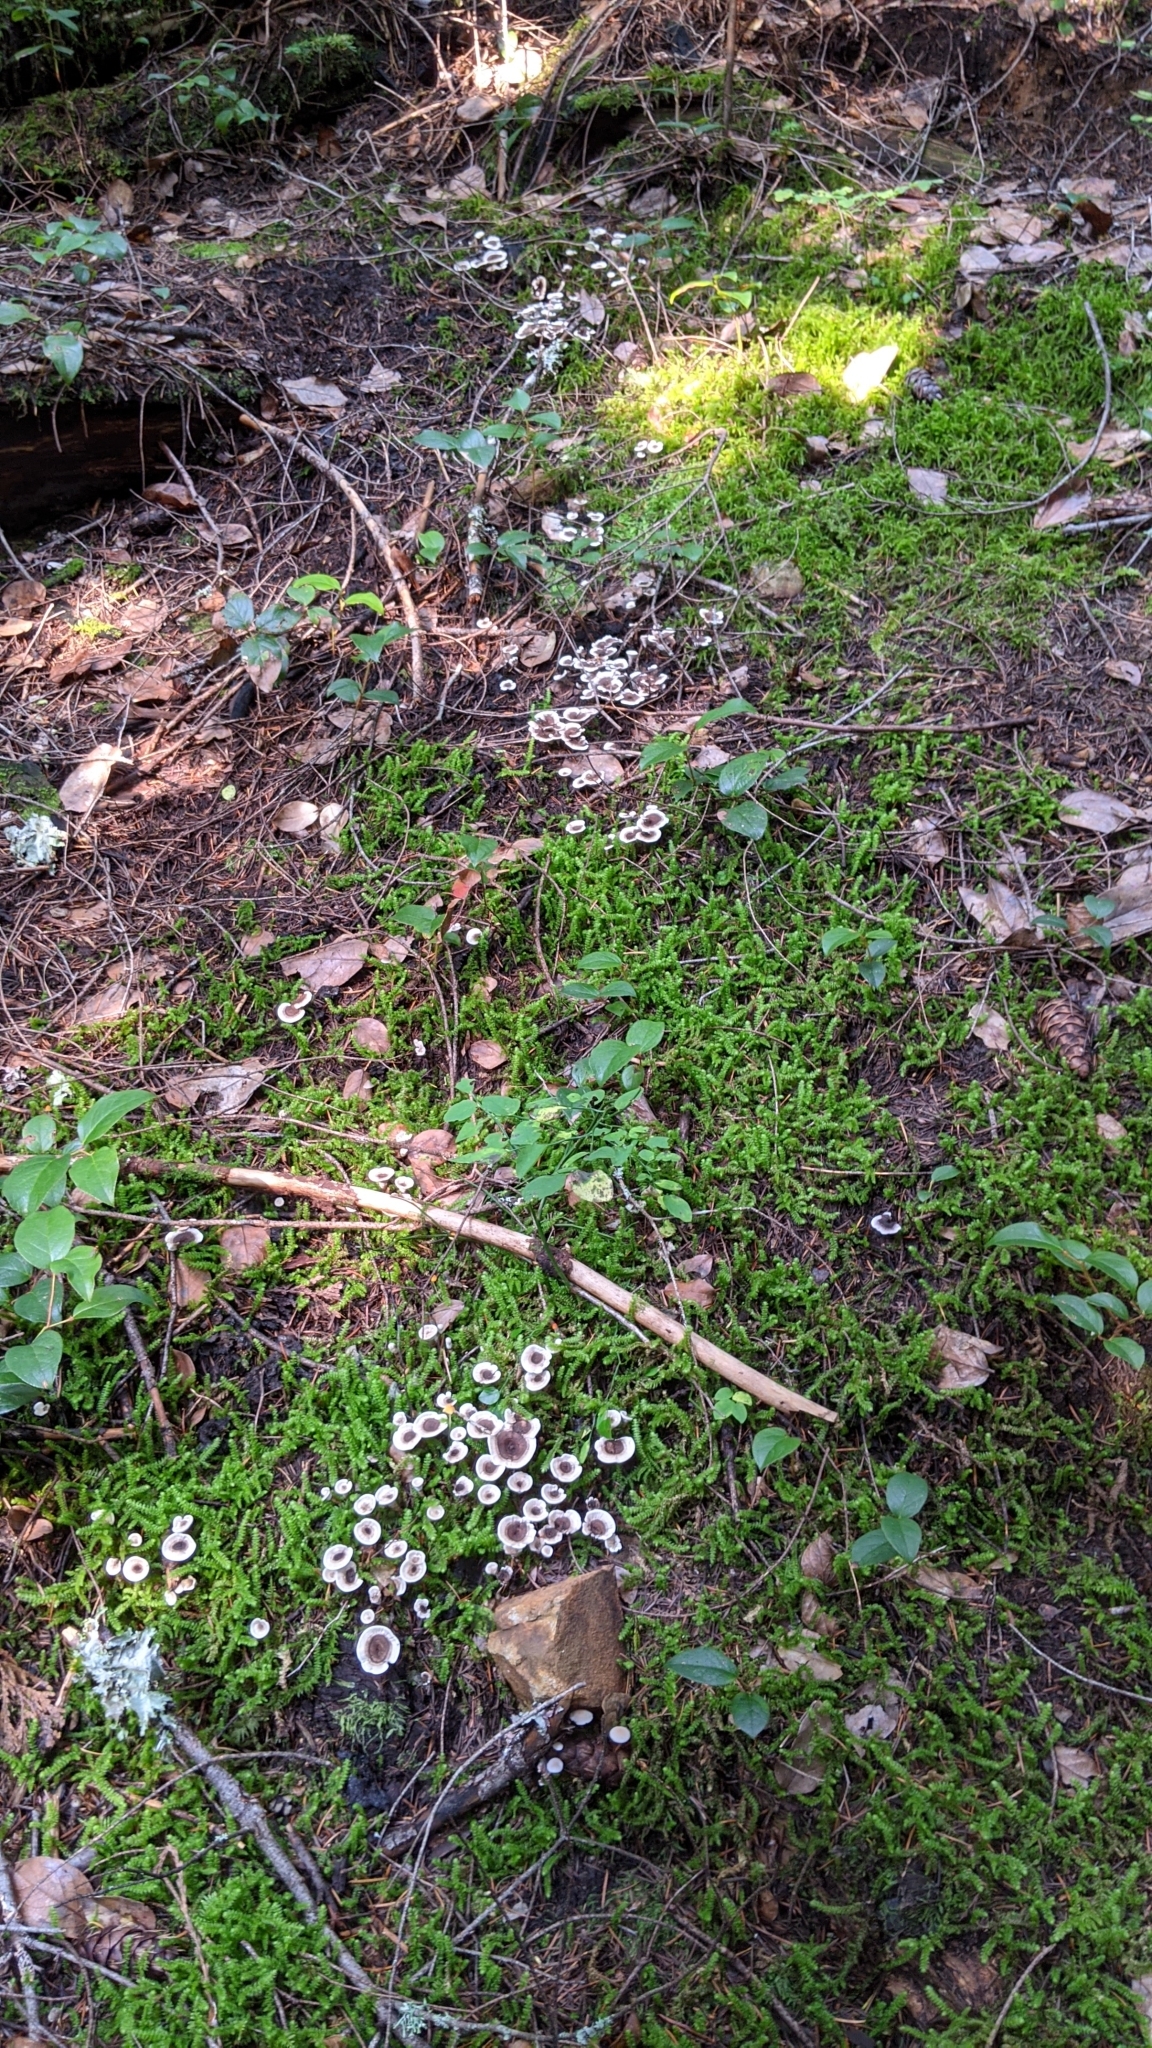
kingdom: Fungi
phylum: Basidiomycota
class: Agaricomycetes
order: Thelephorales
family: Thelephoraceae
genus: Phellodon
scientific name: Phellodon tomentosus
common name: Woolly tooth
